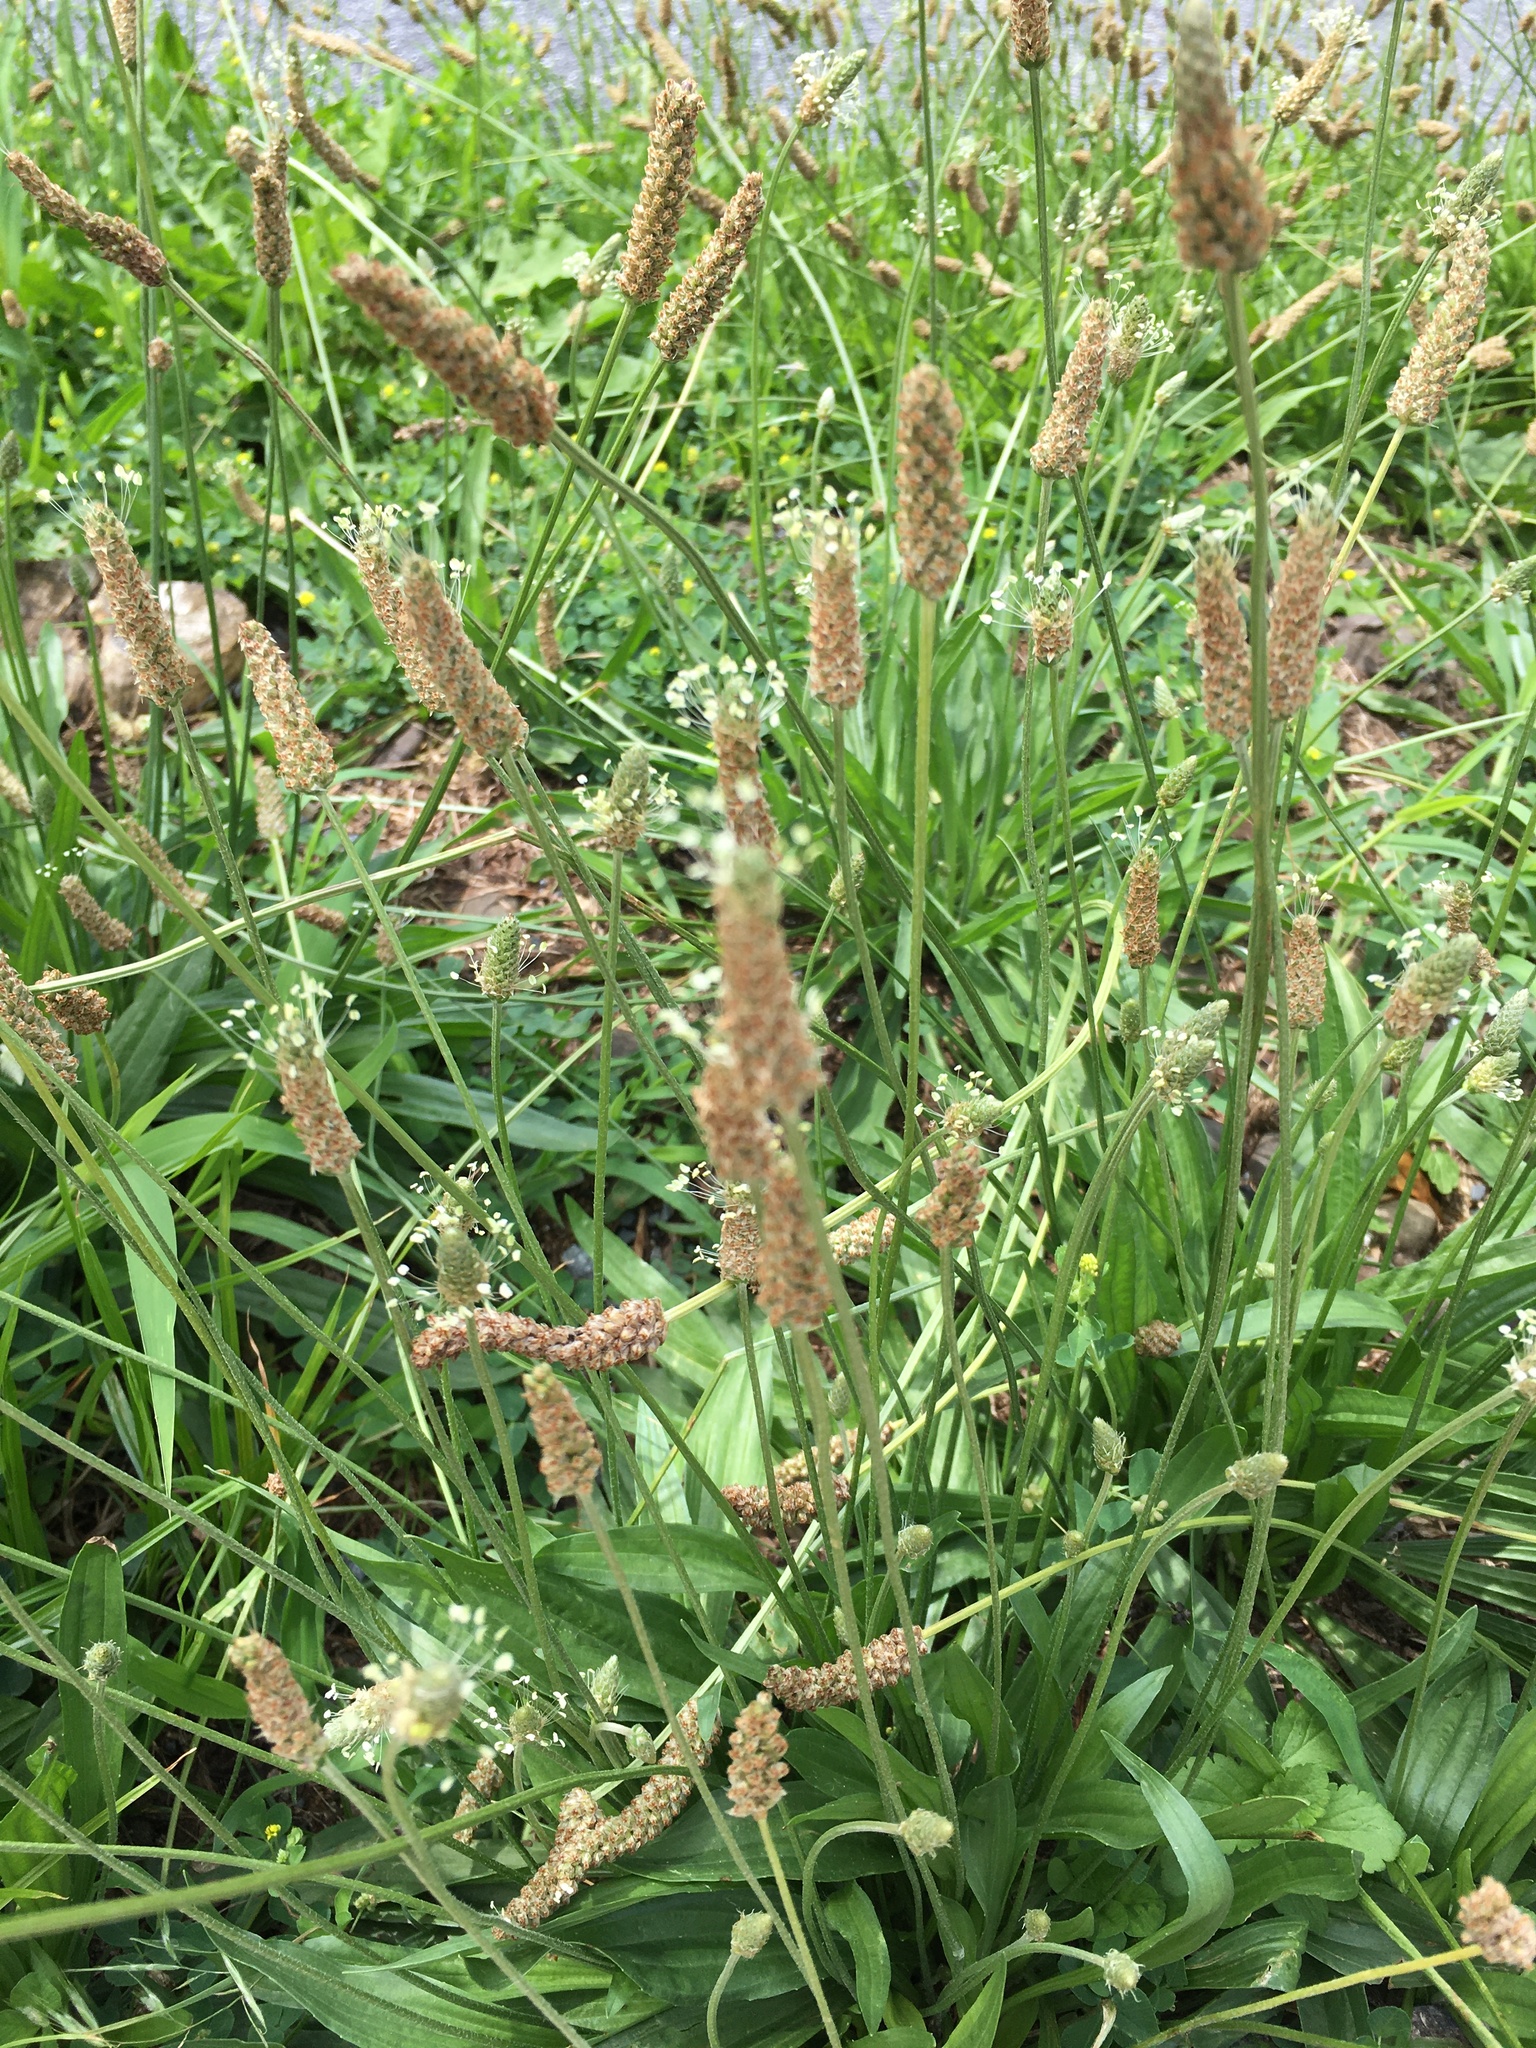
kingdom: Plantae
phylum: Tracheophyta
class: Magnoliopsida
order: Lamiales
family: Plantaginaceae
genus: Plantago
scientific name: Plantago lanceolata
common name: Ribwort plantain
